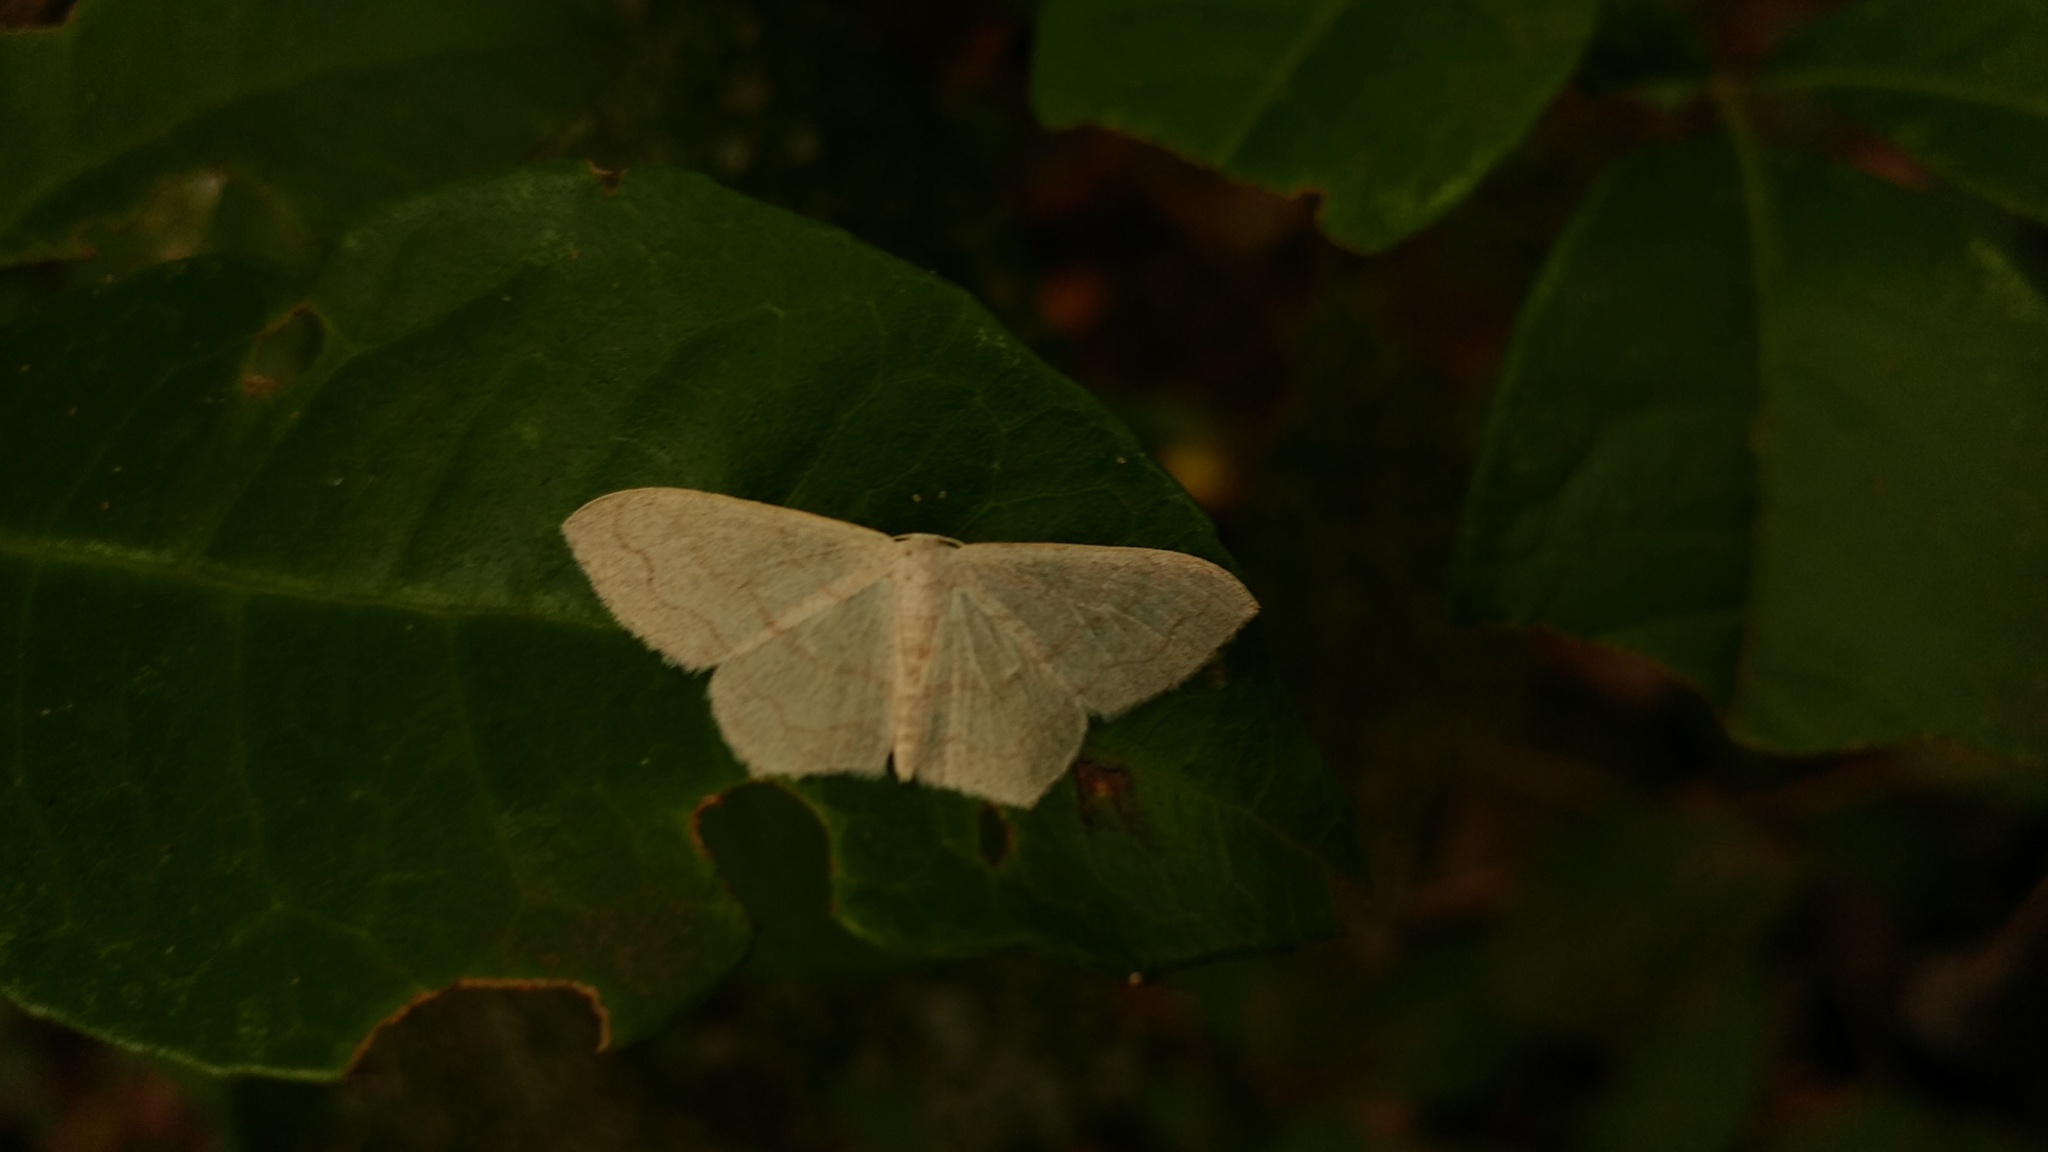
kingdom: Animalia
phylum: Arthropoda
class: Insecta
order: Lepidoptera
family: Geometridae
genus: Scopula
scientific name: Scopula junctaria
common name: Simple wave
